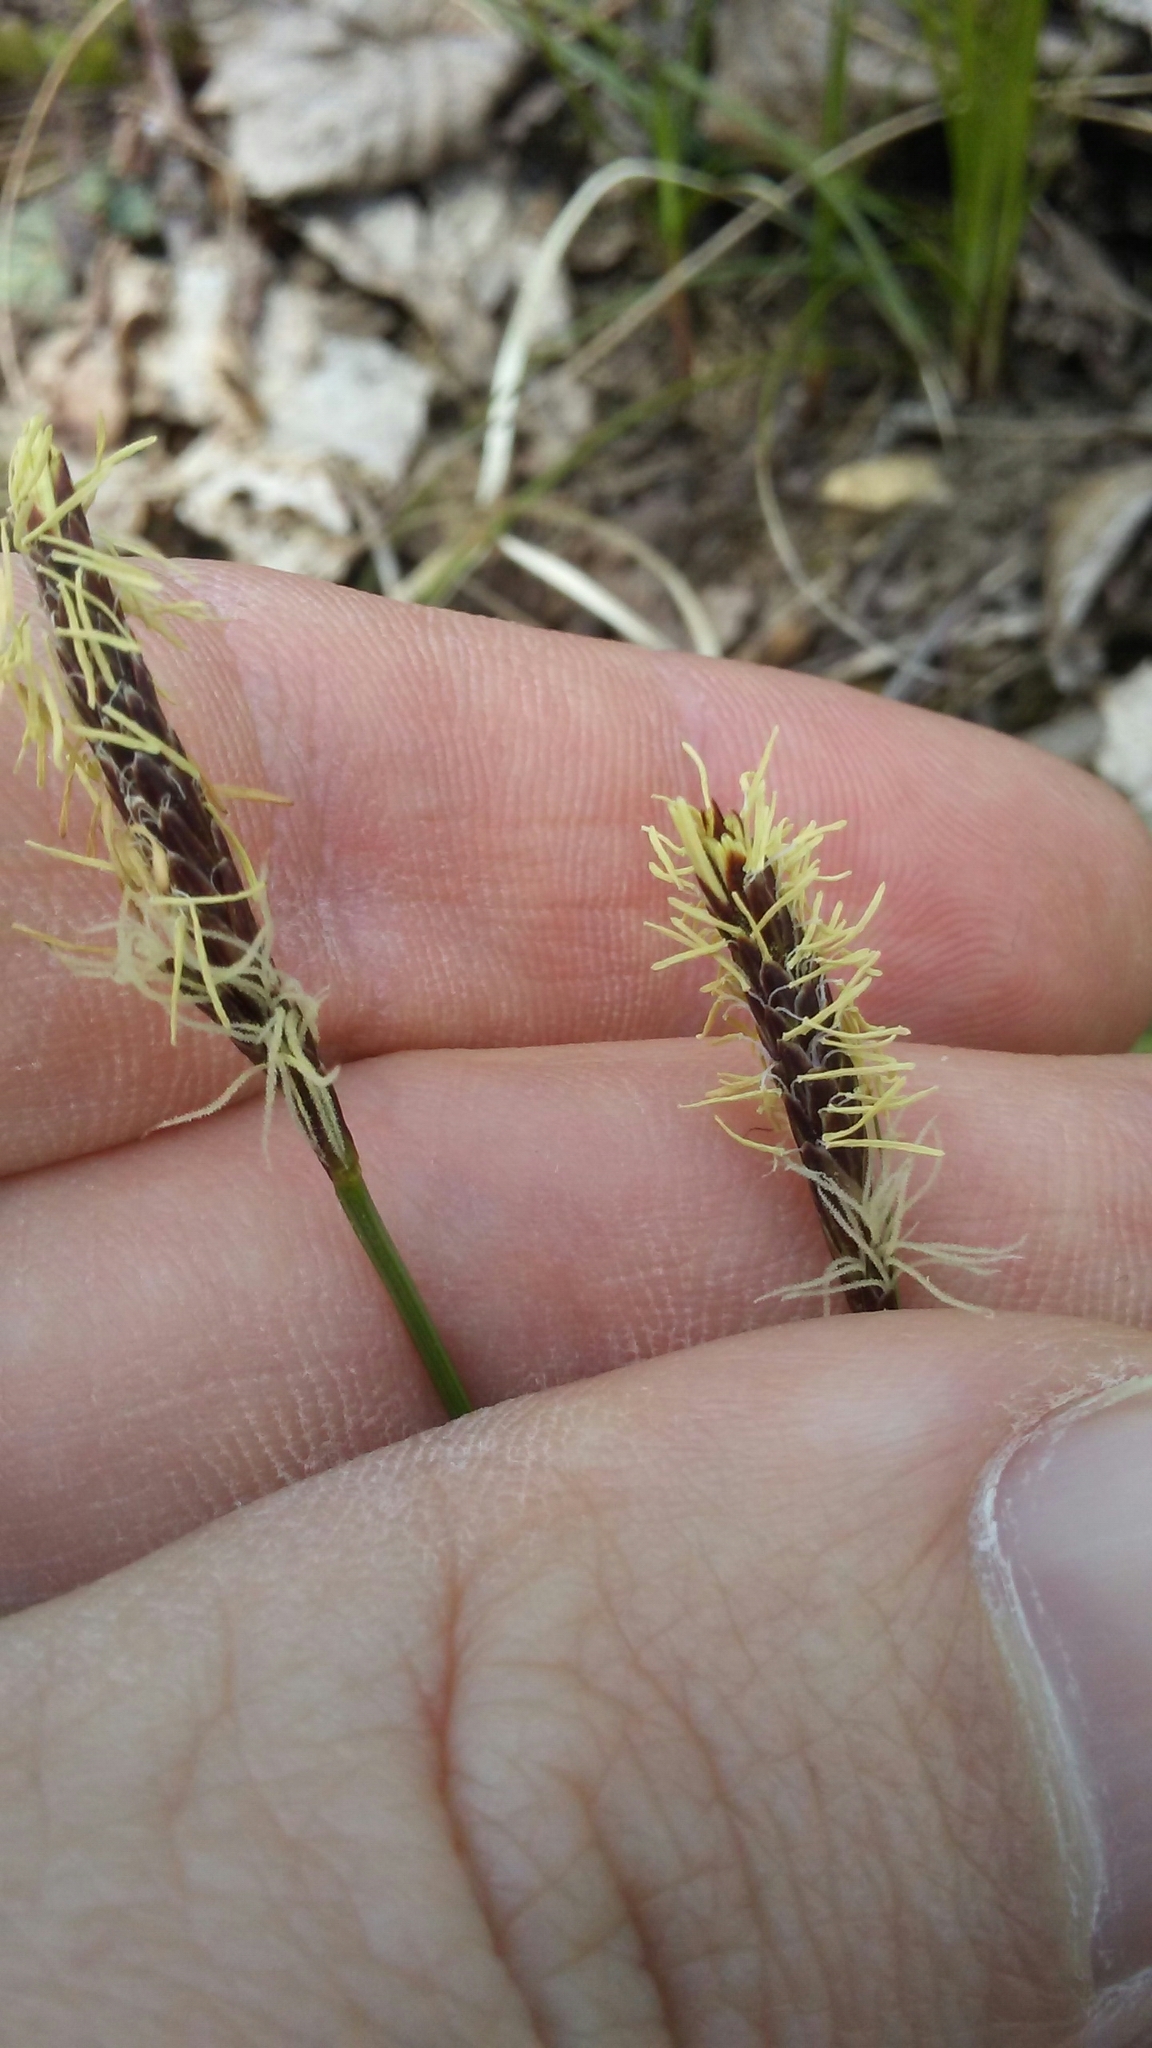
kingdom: Plantae
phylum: Tracheophyta
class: Liliopsida
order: Poales
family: Cyperaceae
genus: Carex
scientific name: Carex pensylvanica
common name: Common oak sedge
